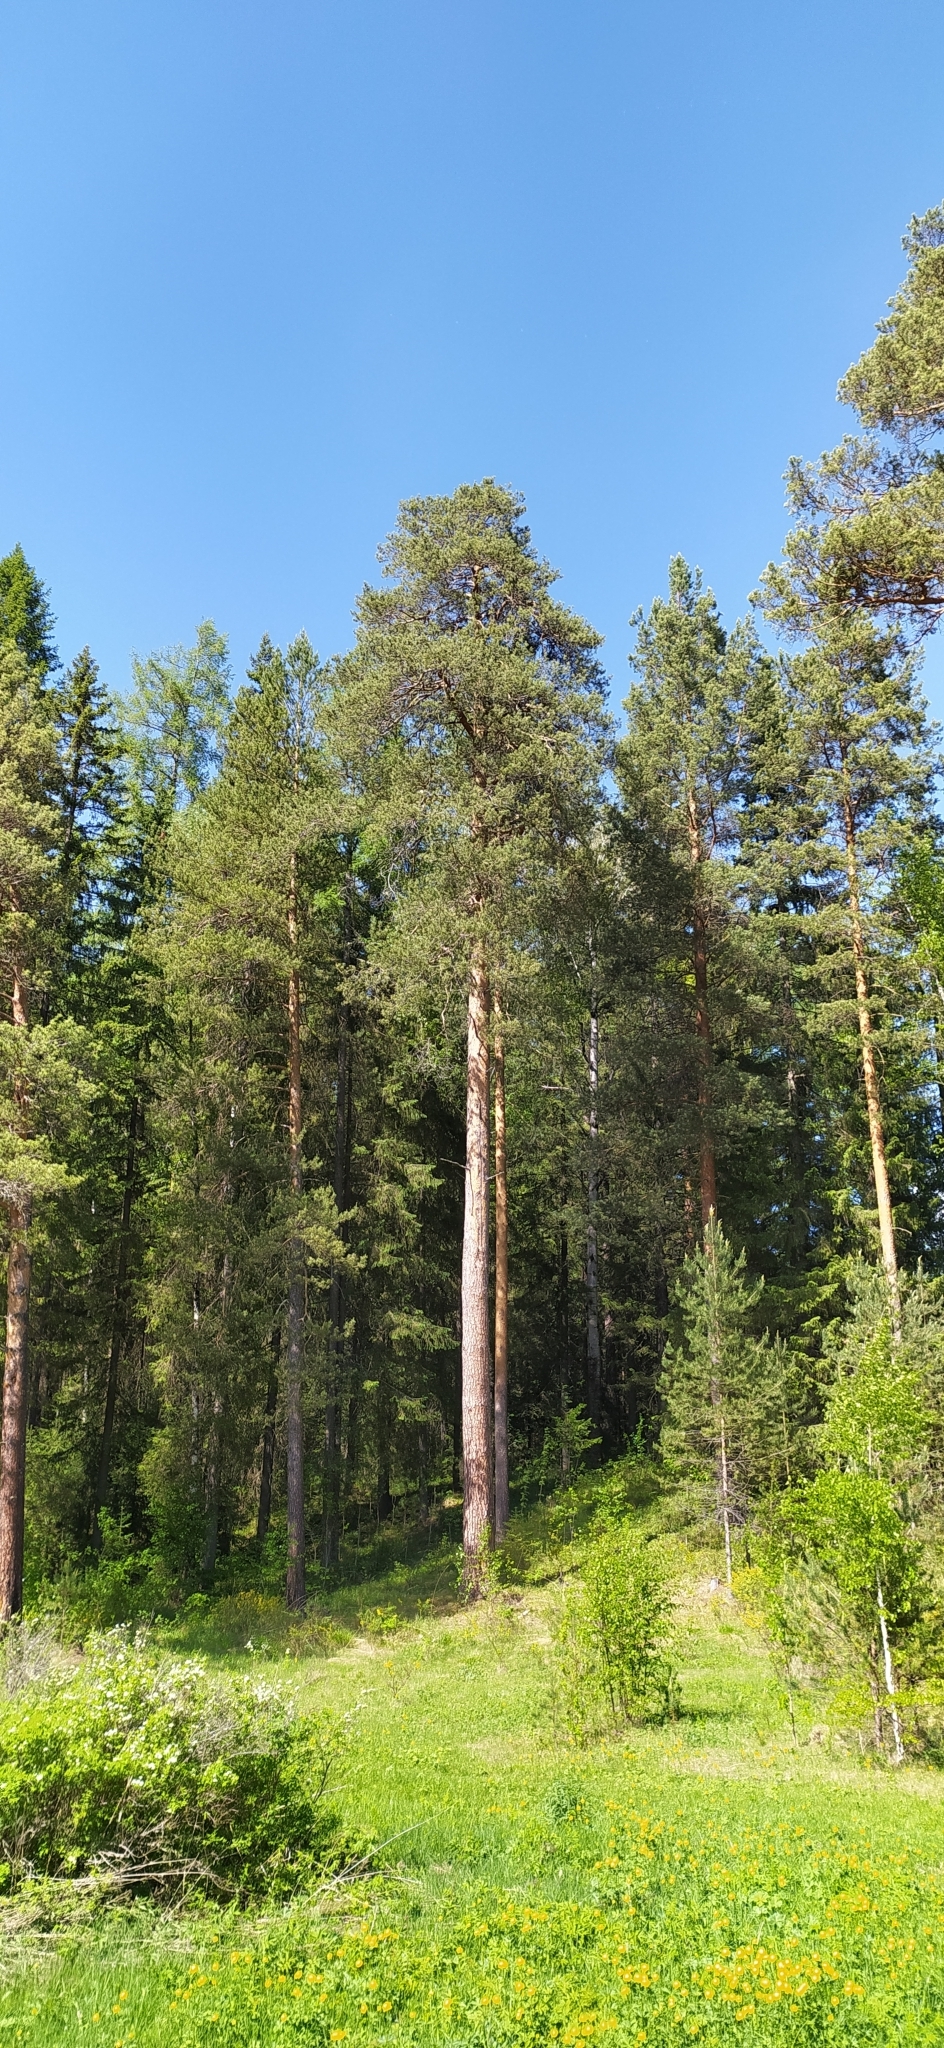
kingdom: Plantae
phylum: Tracheophyta
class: Pinopsida
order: Pinales
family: Pinaceae
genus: Pinus
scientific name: Pinus sylvestris
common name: Scots pine
